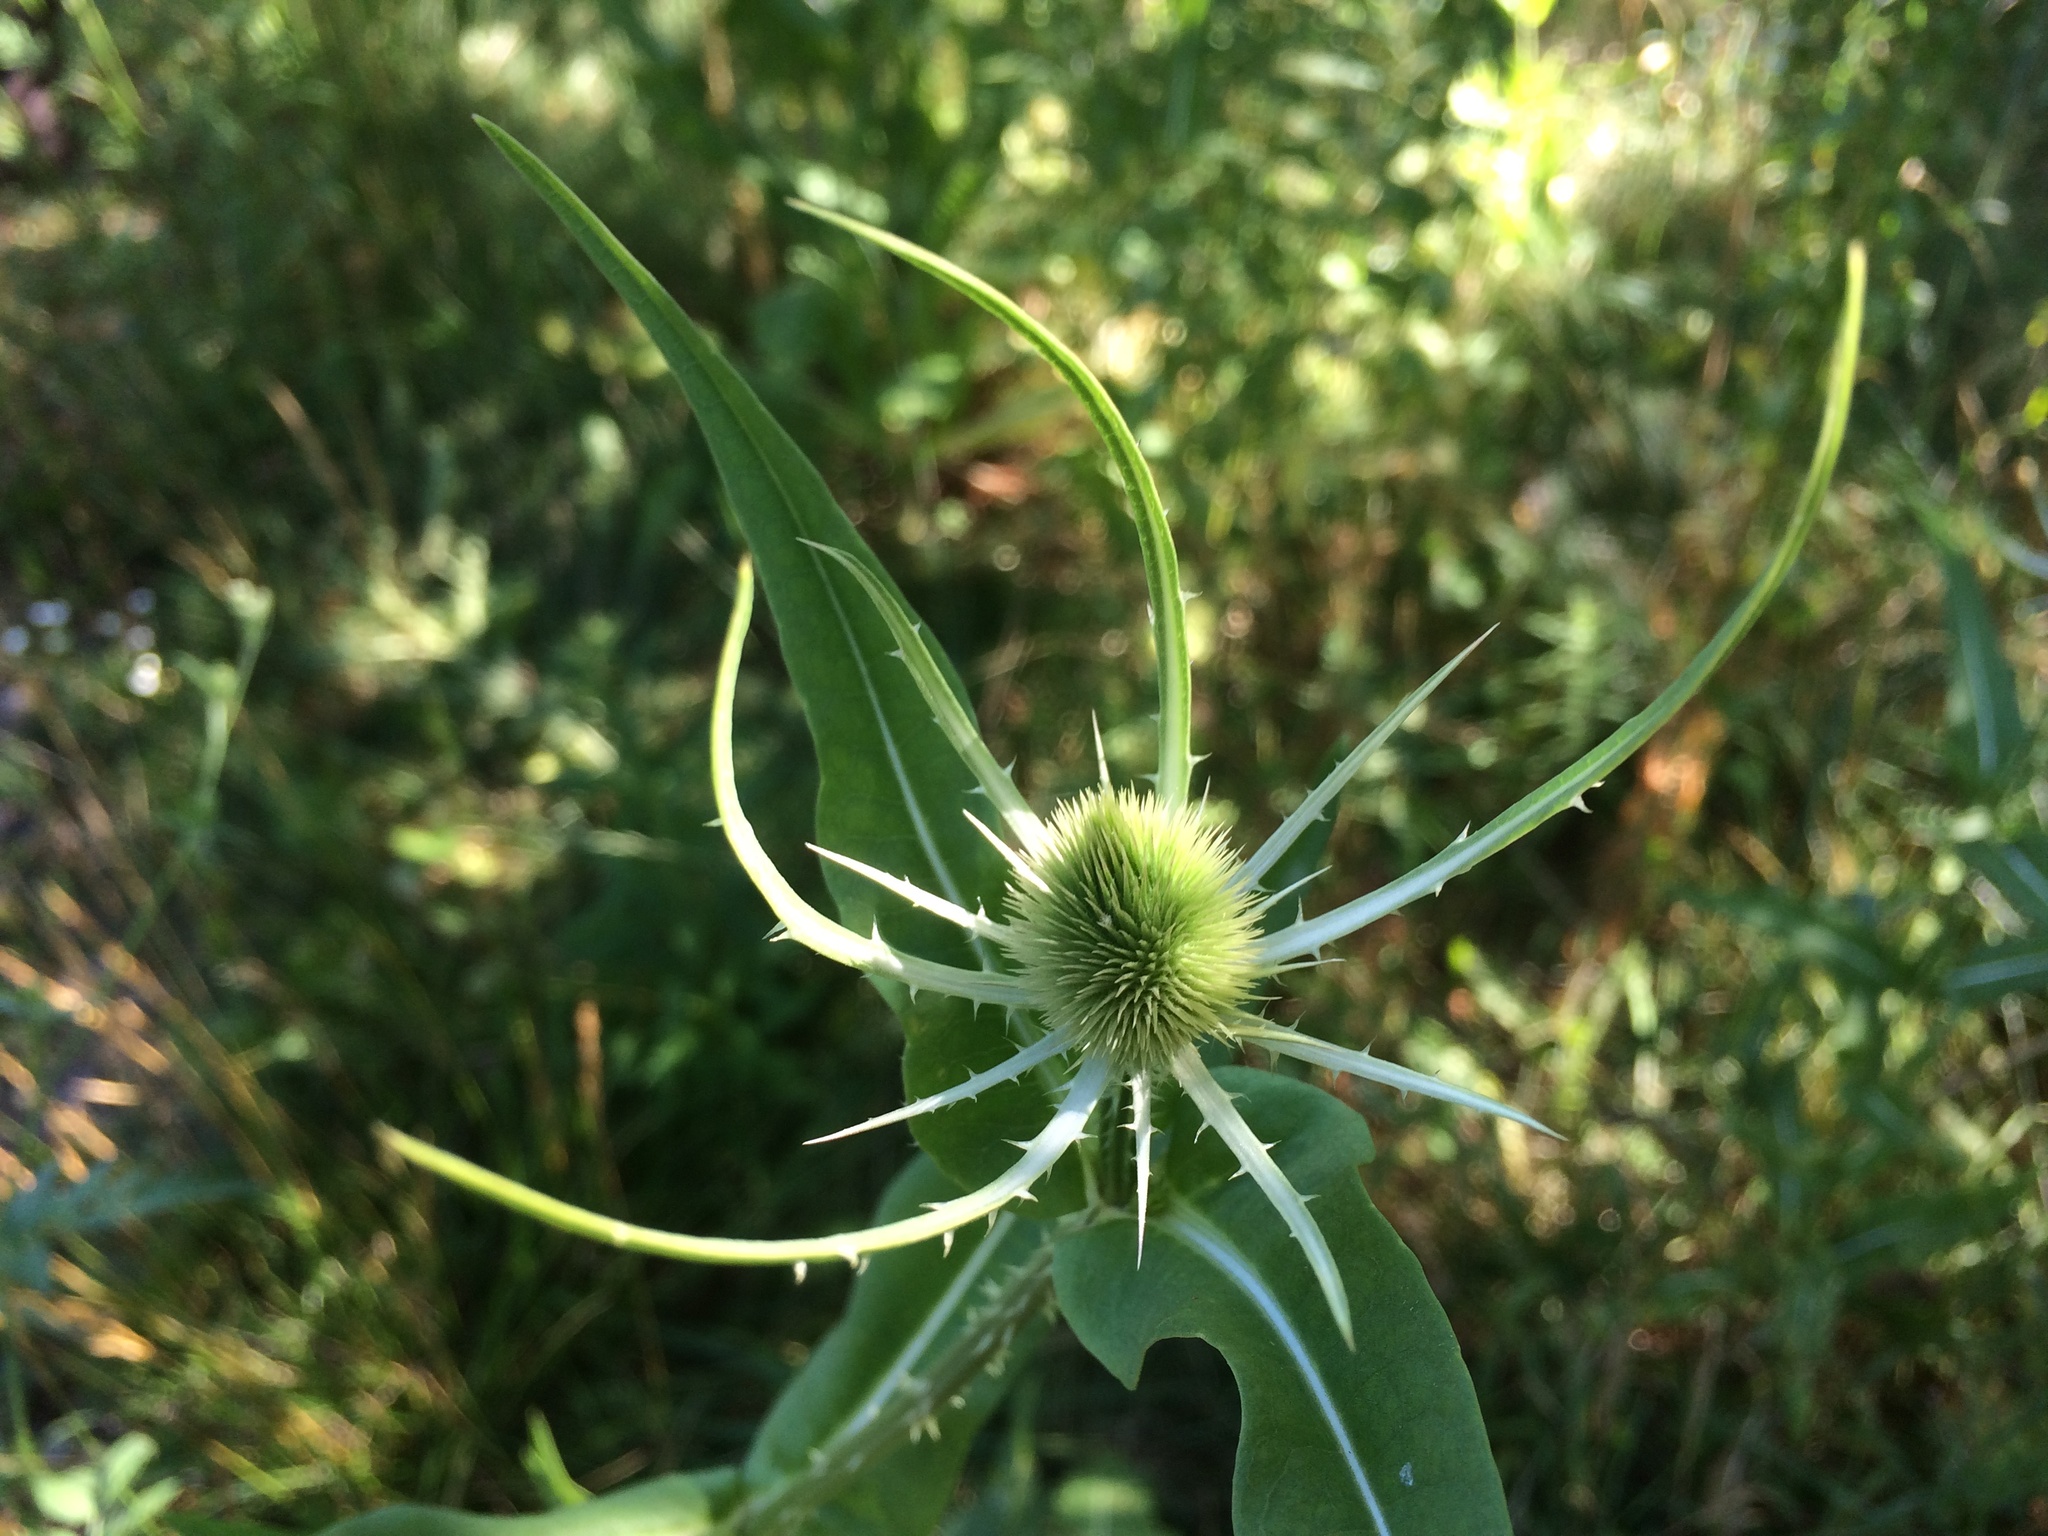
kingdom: Plantae
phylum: Tracheophyta
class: Magnoliopsida
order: Dipsacales
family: Caprifoliaceae
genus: Dipsacus
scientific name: Dipsacus fullonum
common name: Teasel
